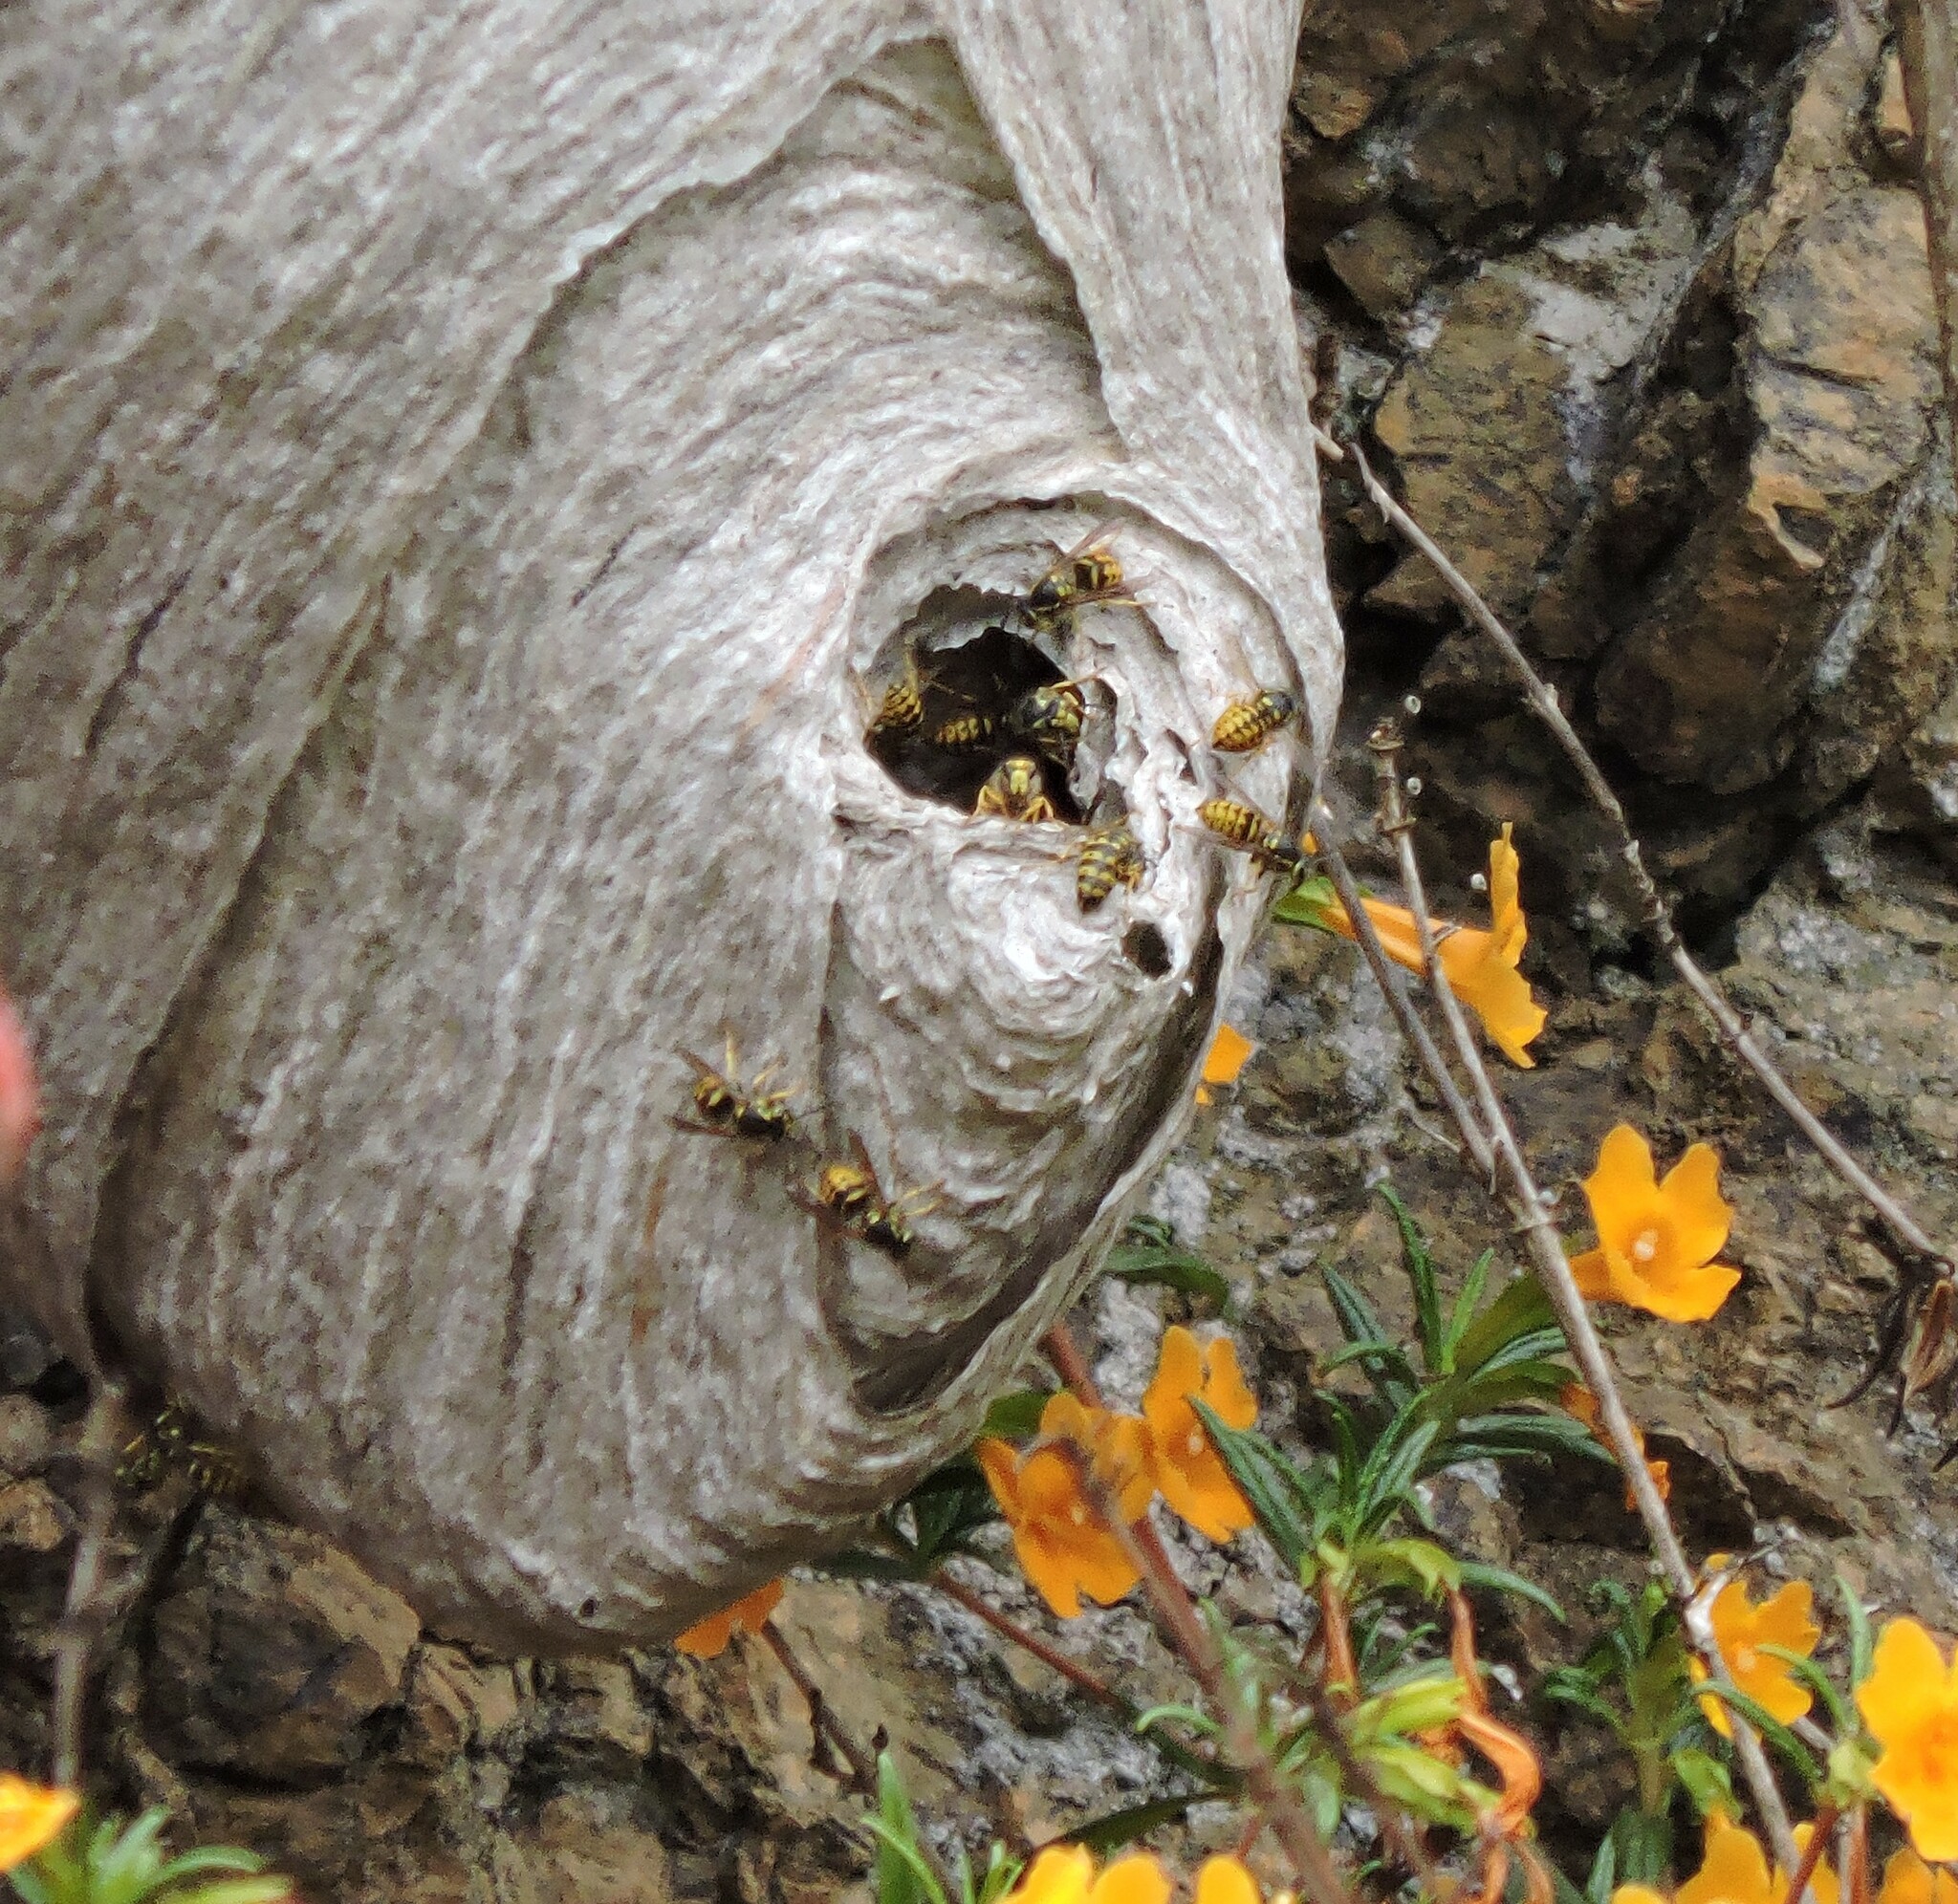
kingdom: Animalia
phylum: Arthropoda
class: Insecta
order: Hymenoptera
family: Vespidae
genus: Dolichovespula
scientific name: Dolichovespula arenaria
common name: Aerial yellowjacket
